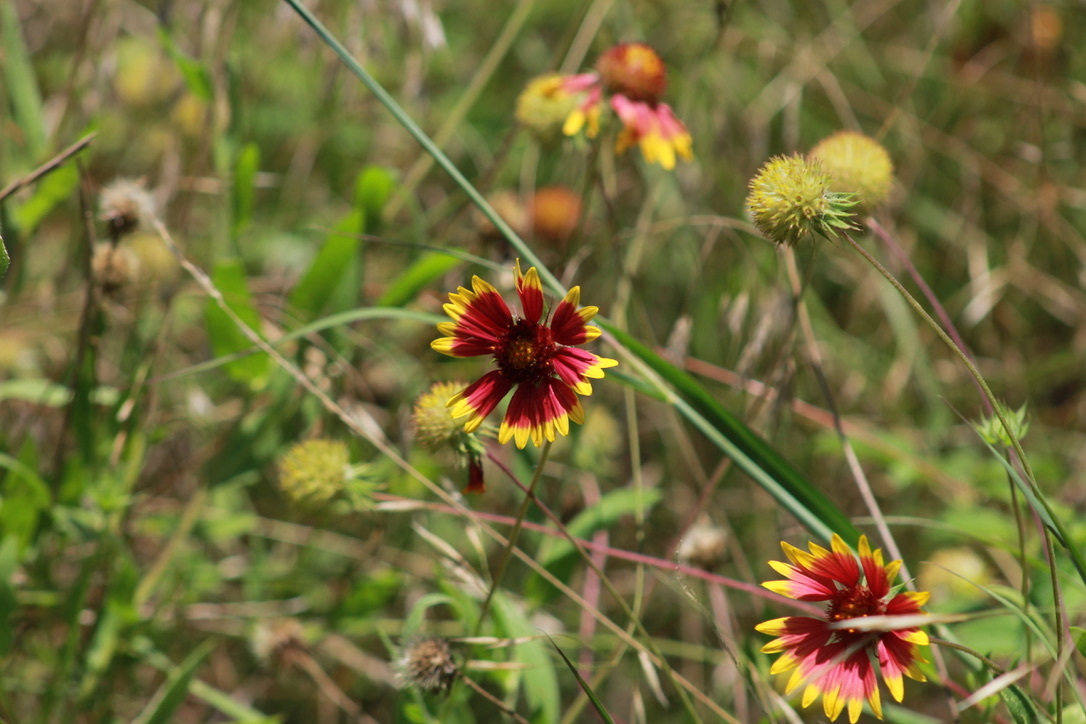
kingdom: Plantae
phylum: Tracheophyta
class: Magnoliopsida
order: Asterales
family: Asteraceae
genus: Gaillardia
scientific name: Gaillardia pulchella
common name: Firewheel
